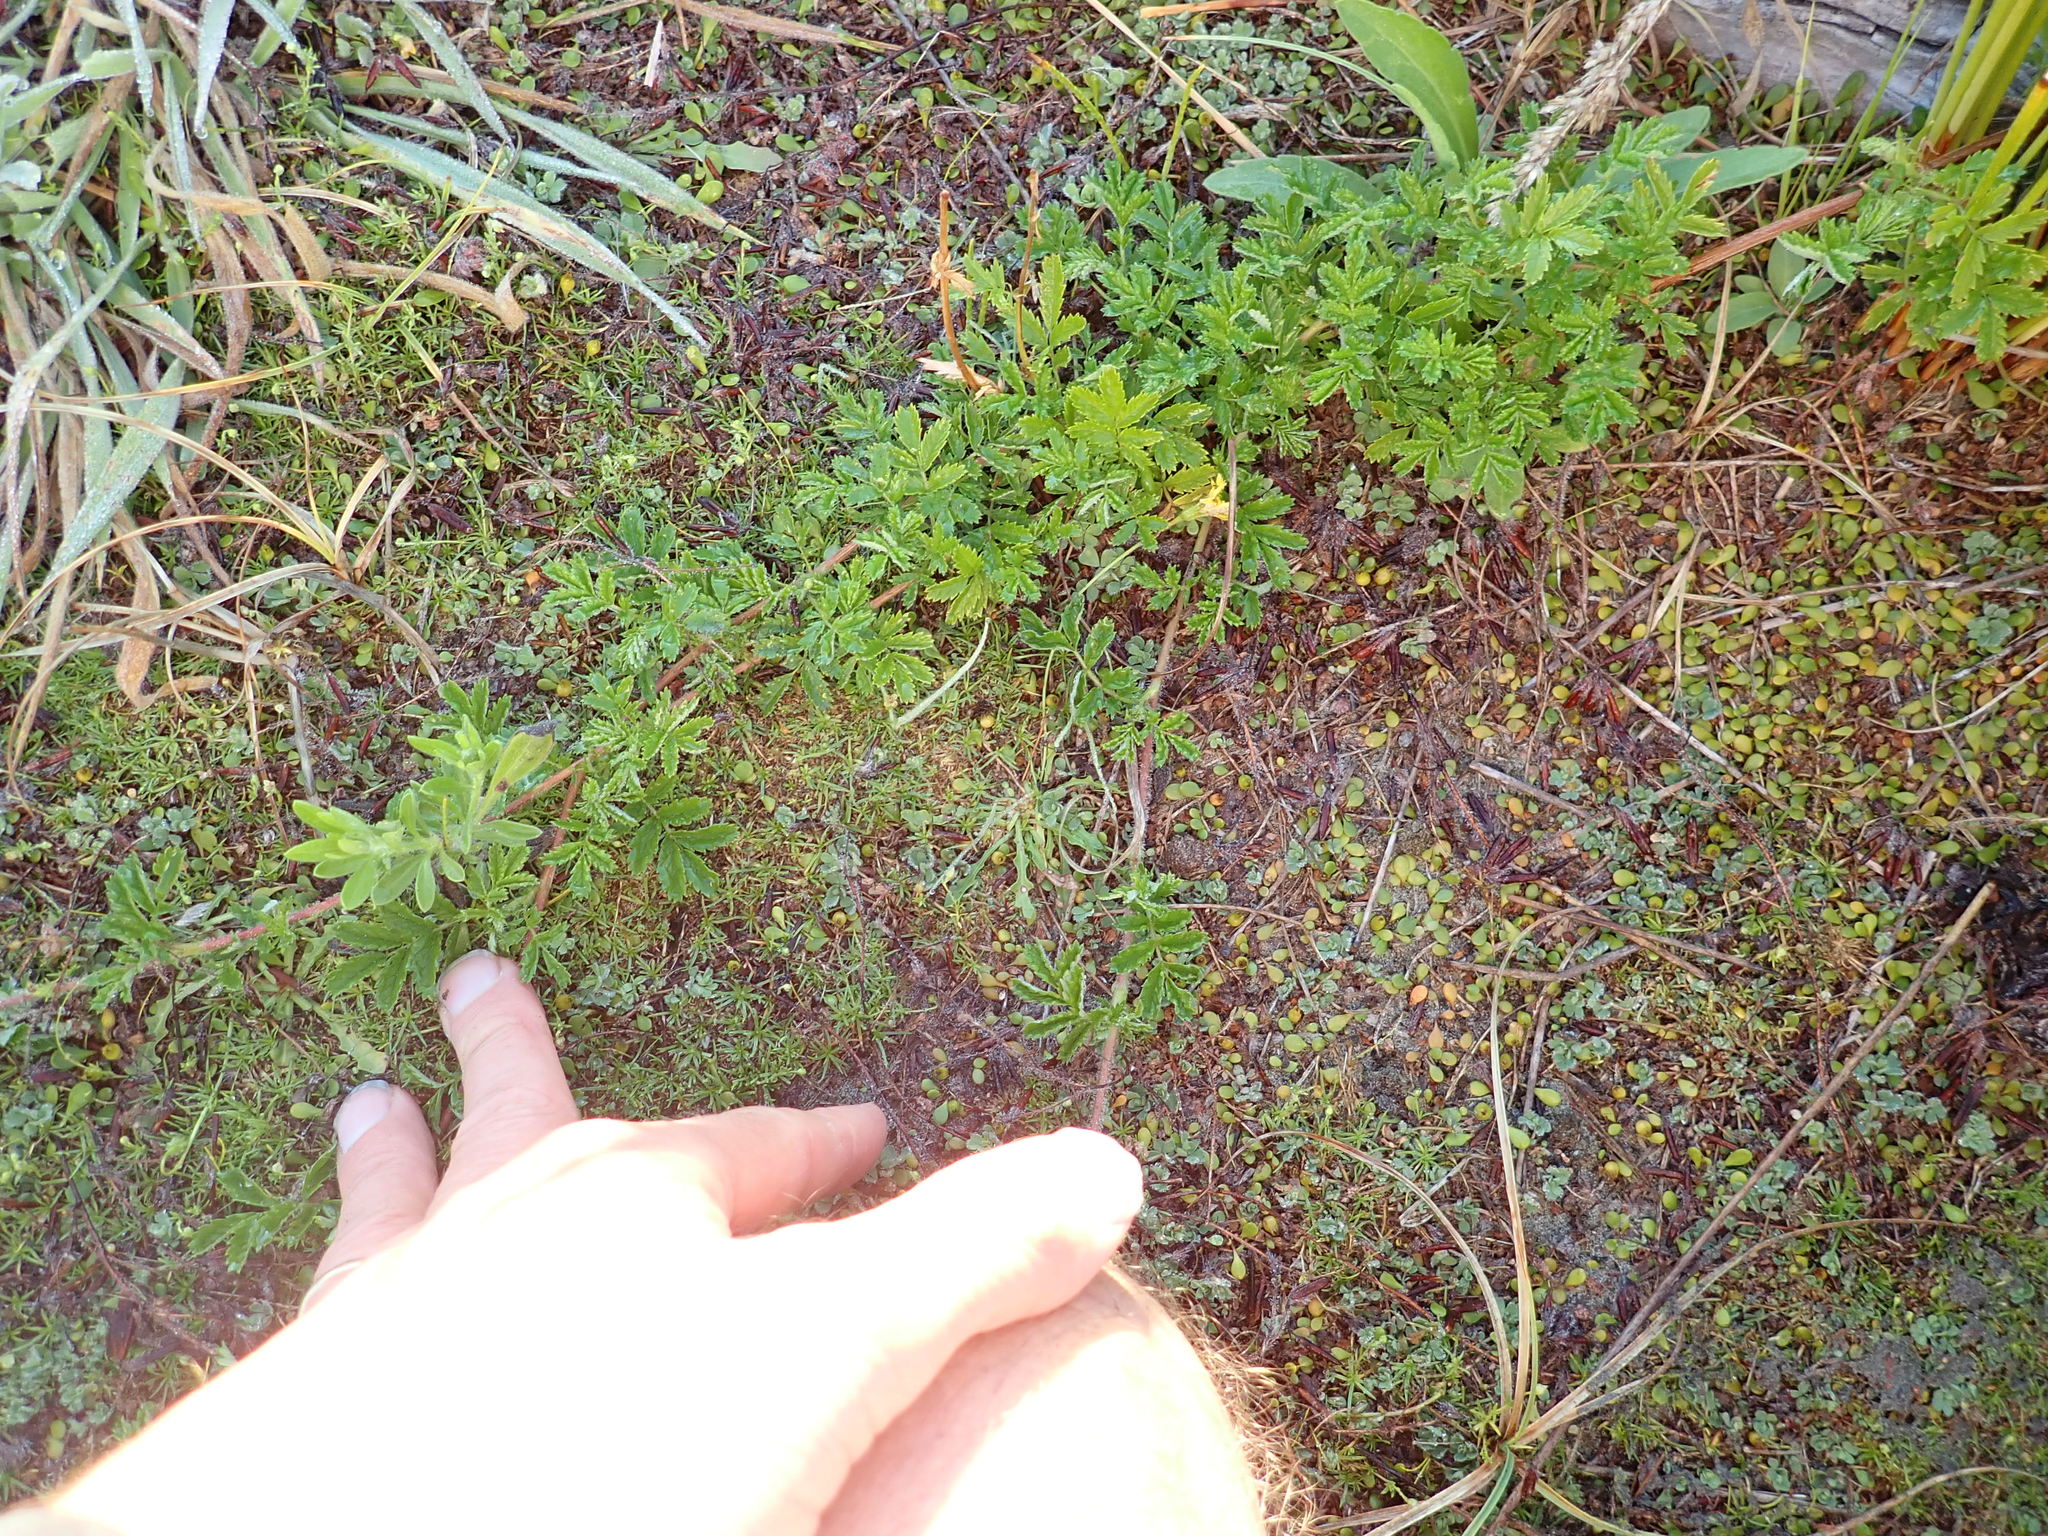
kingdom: Plantae
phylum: Tracheophyta
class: Magnoliopsida
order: Rosales
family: Rosaceae
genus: Acaena
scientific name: Acaena novae-zelandiae
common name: Pirri-pirri-bur
